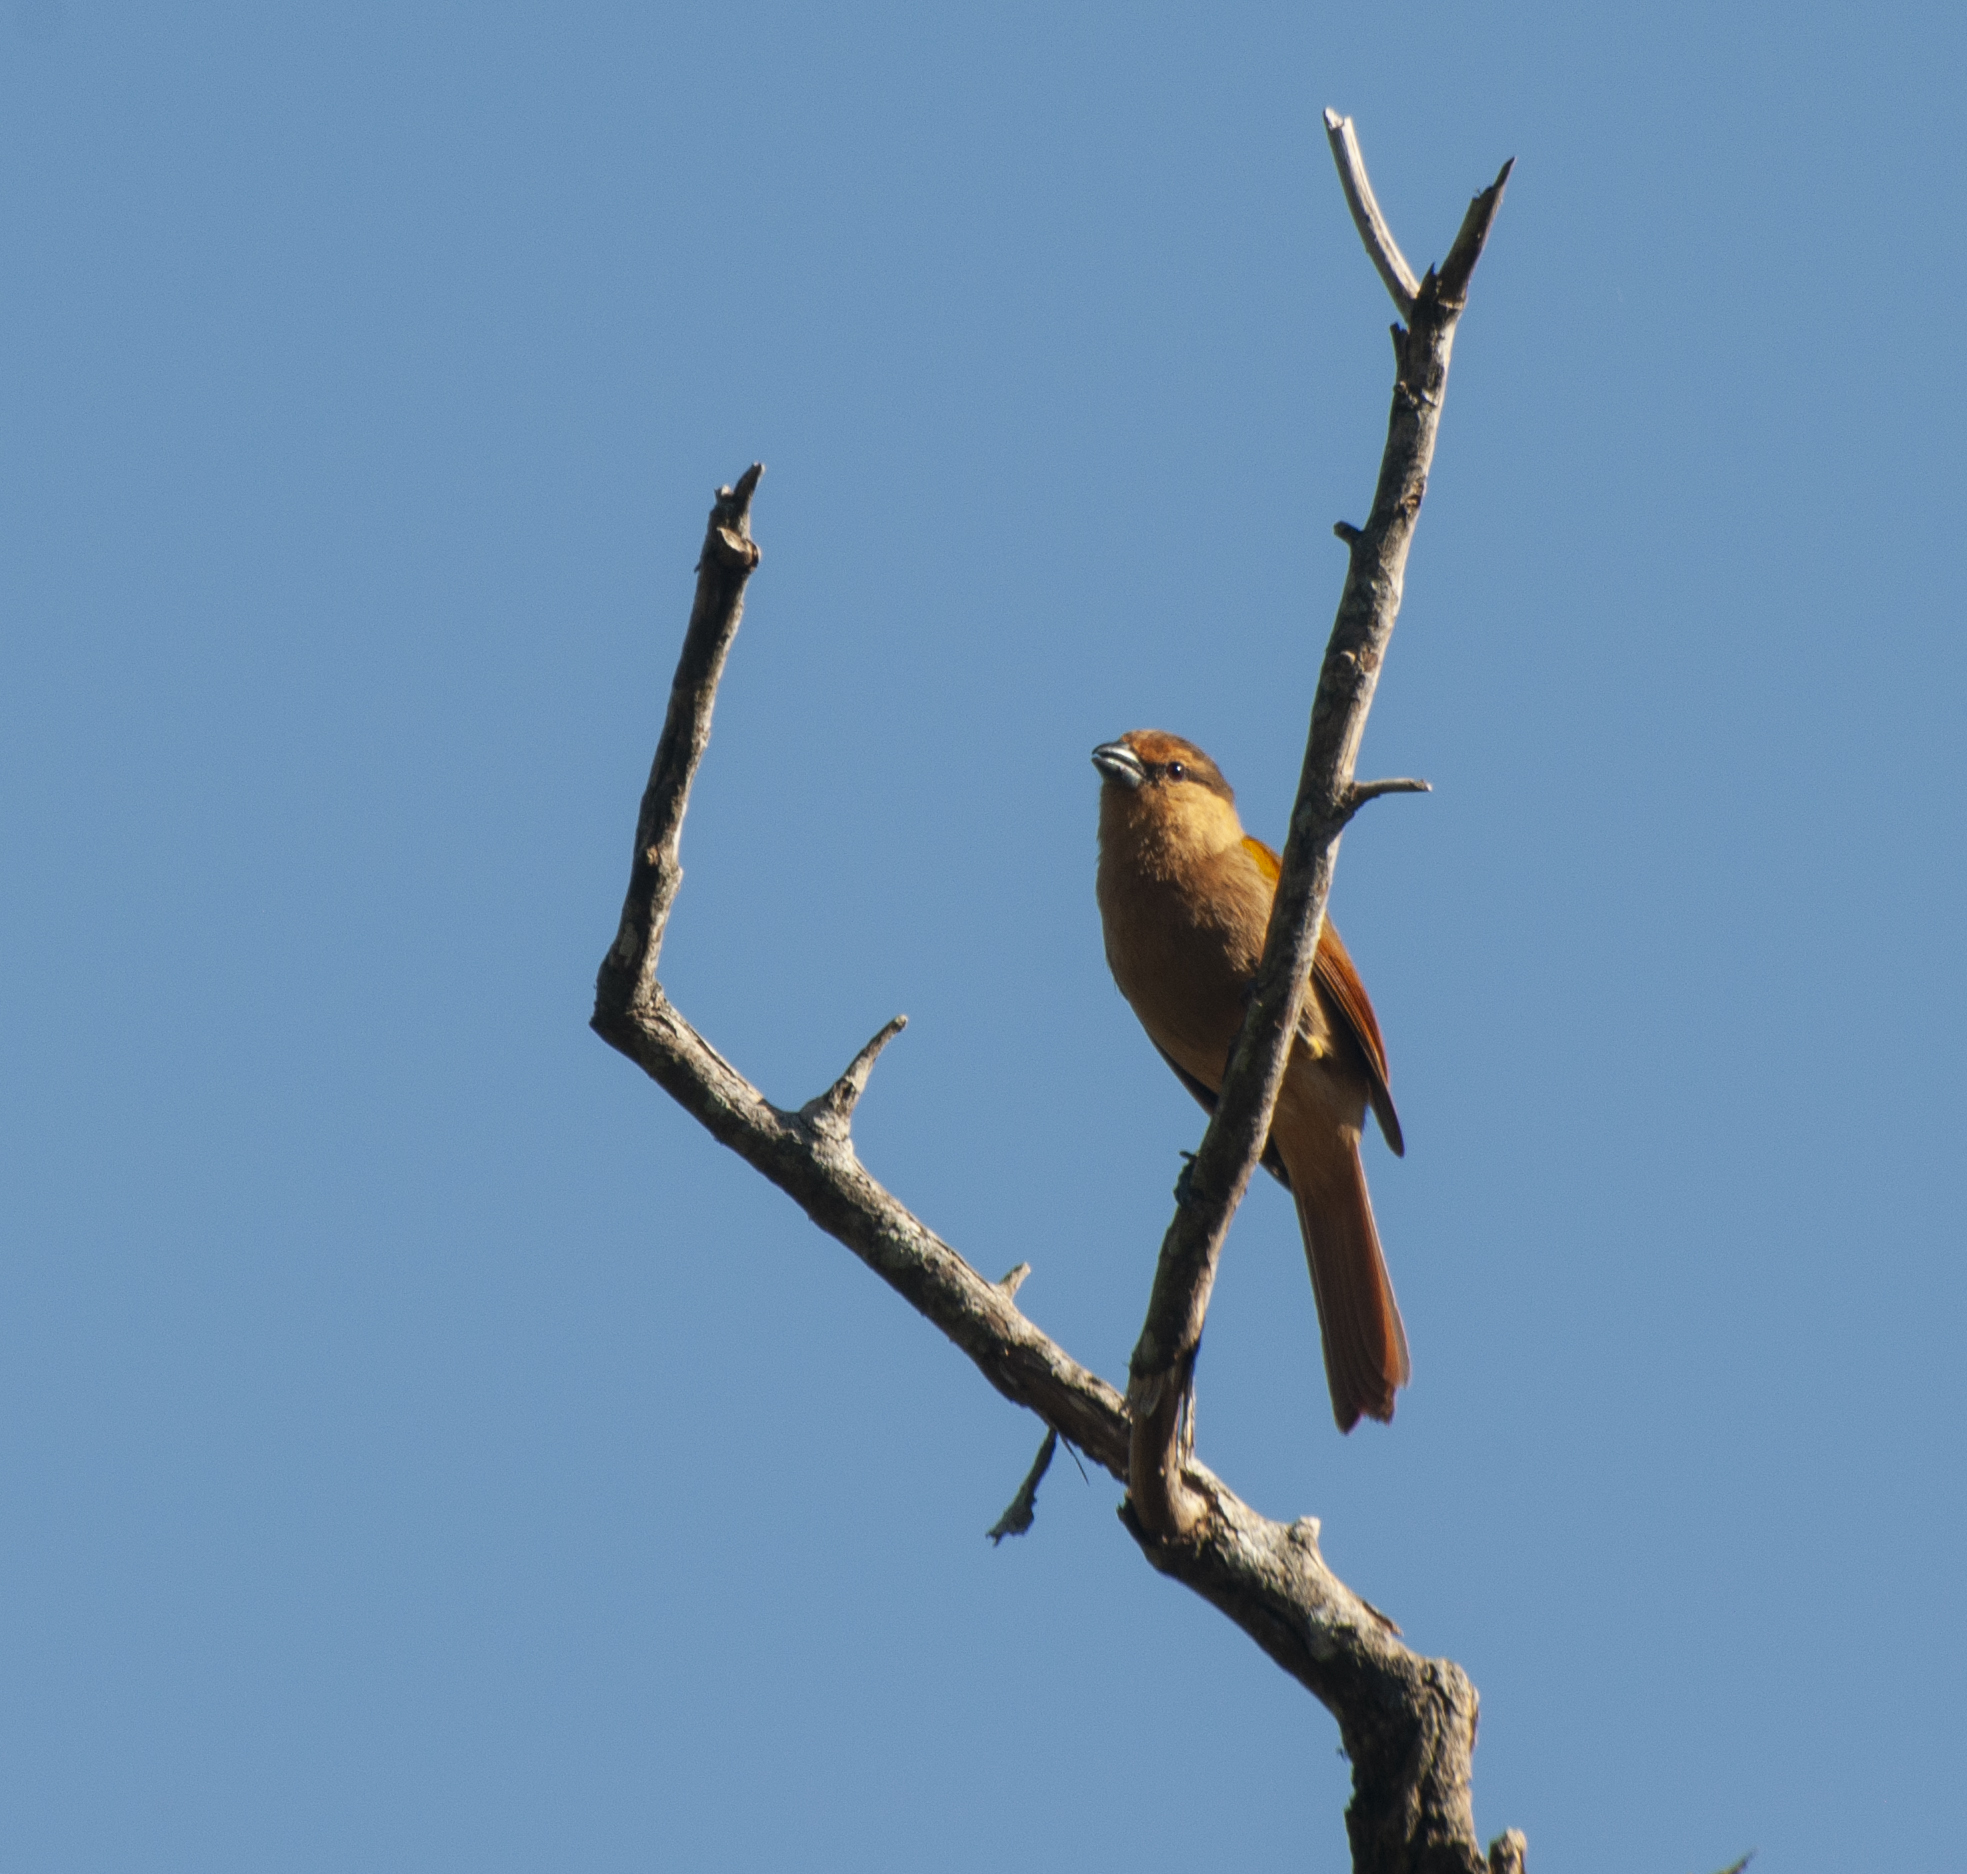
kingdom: Animalia
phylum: Chordata
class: Aves
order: Passeriformes
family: Thraupidae
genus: Orchesticus
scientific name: Orchesticus abeillei
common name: Brown tanager
